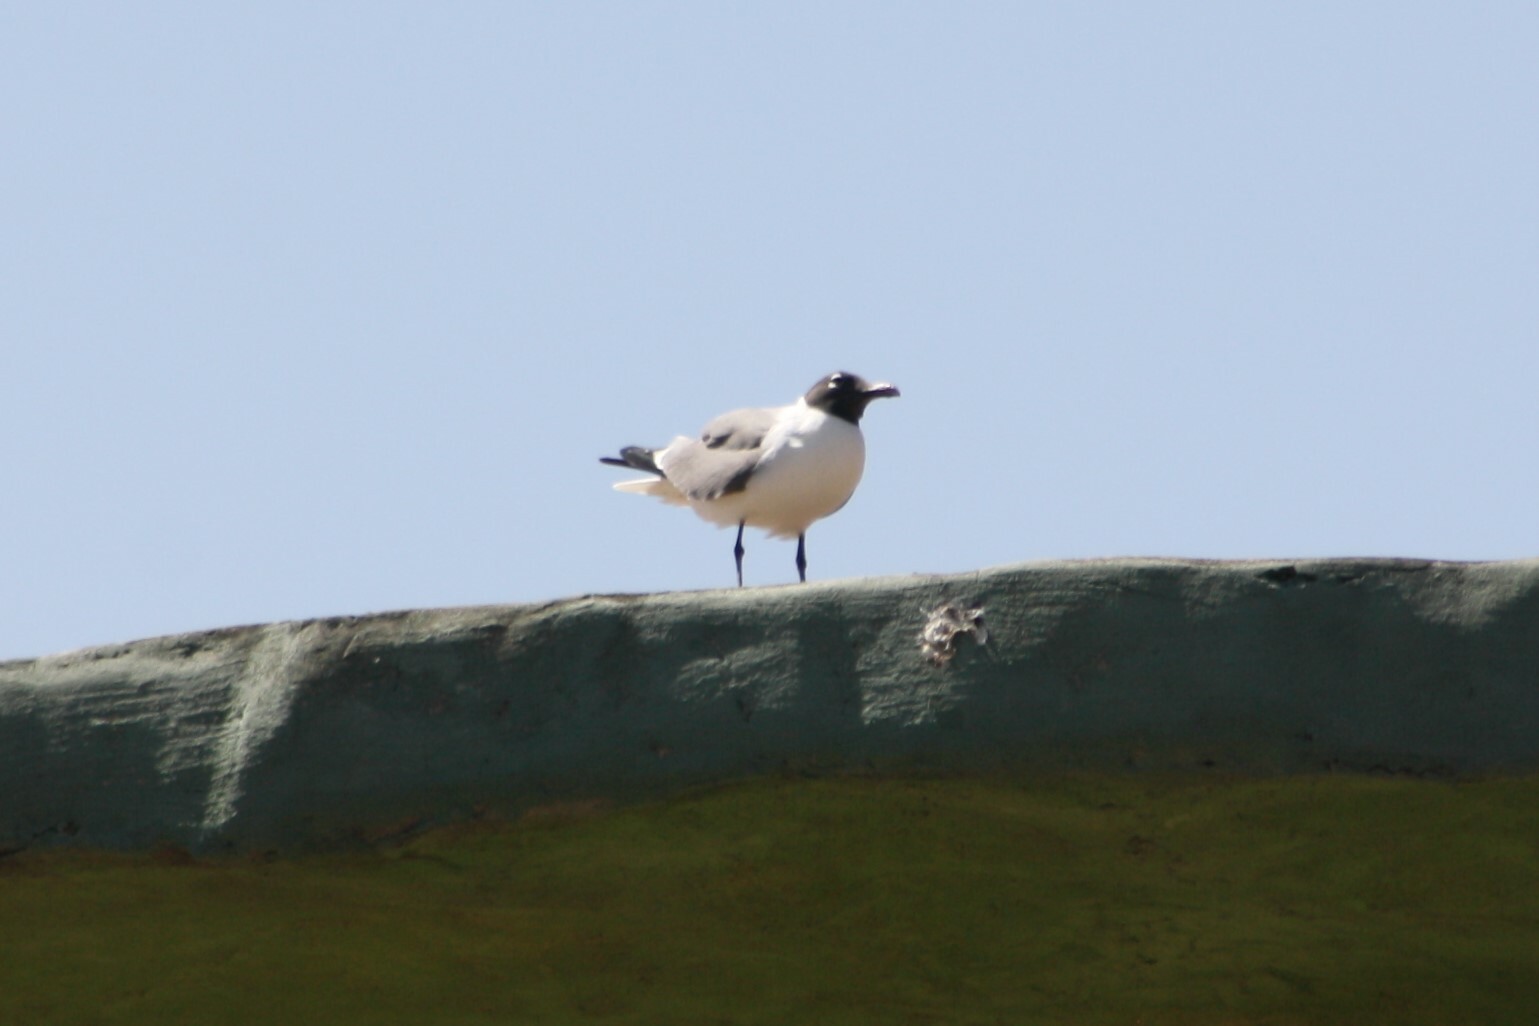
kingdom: Animalia
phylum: Chordata
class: Aves
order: Charadriiformes
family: Laridae
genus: Leucophaeus
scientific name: Leucophaeus atricilla
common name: Laughing gull
